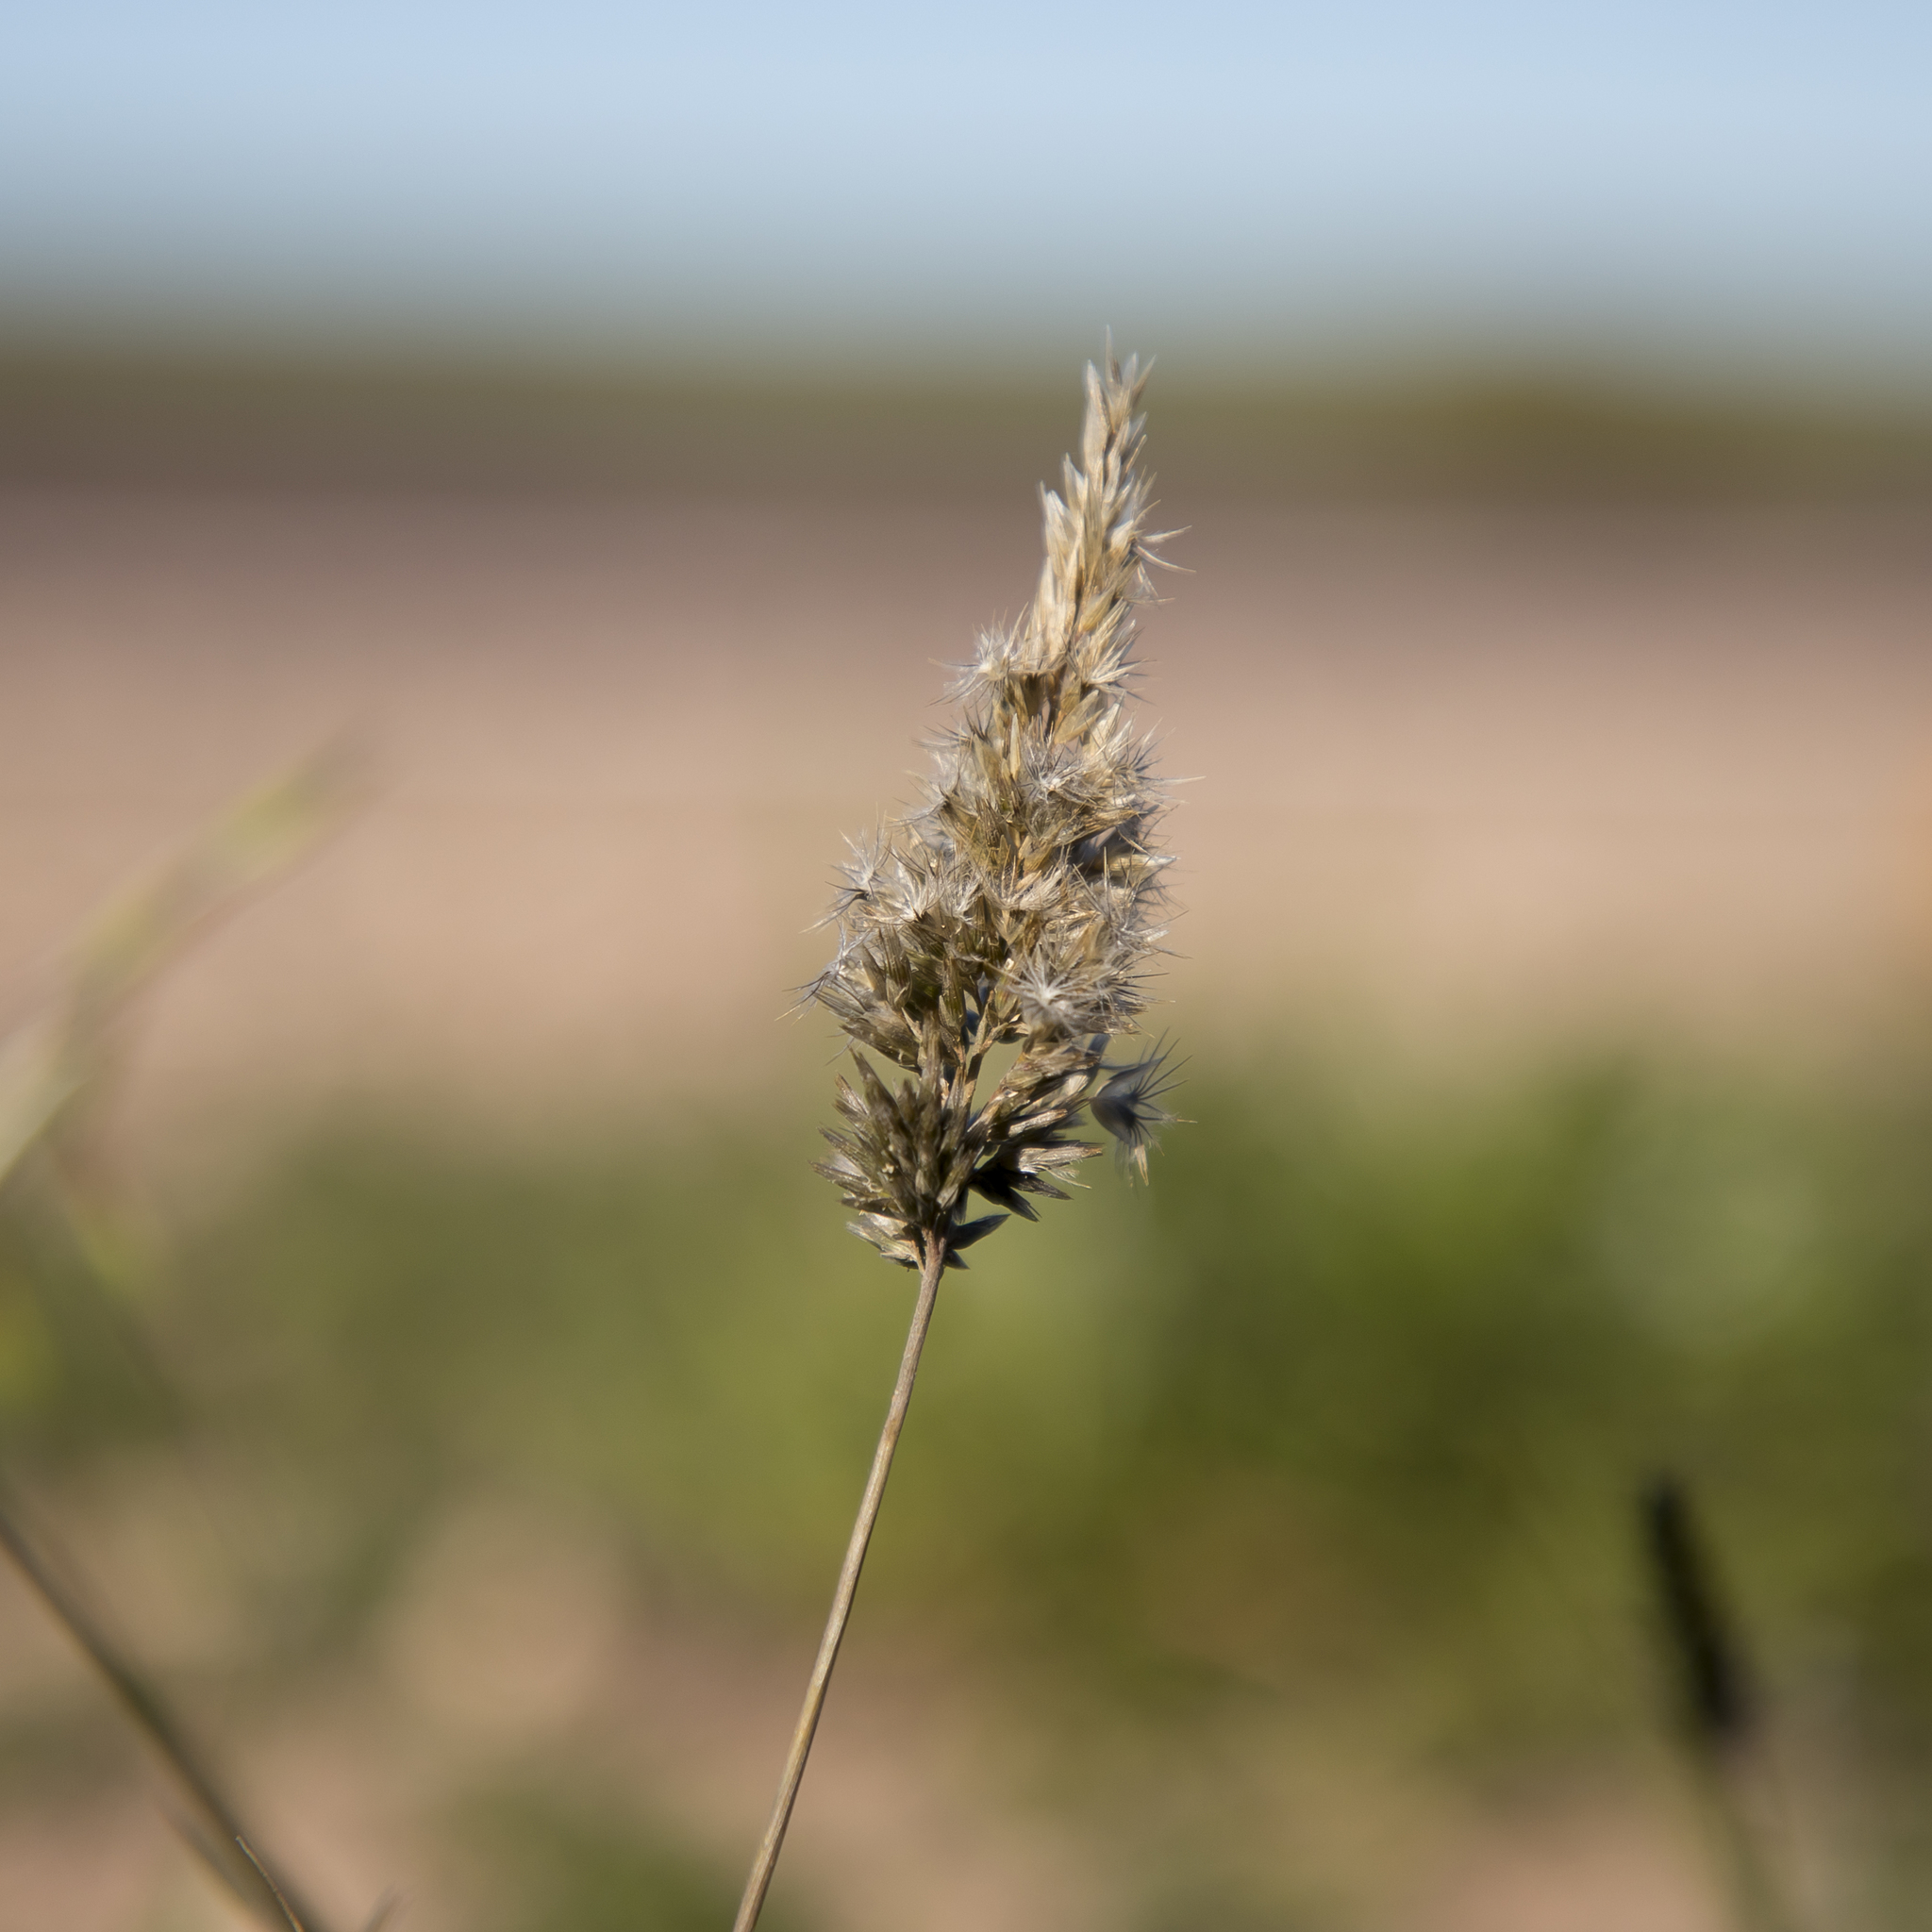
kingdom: Plantae
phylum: Tracheophyta
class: Liliopsida
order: Poales
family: Poaceae
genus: Enneapogon
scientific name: Enneapogon nigricans
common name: Pappus grass
